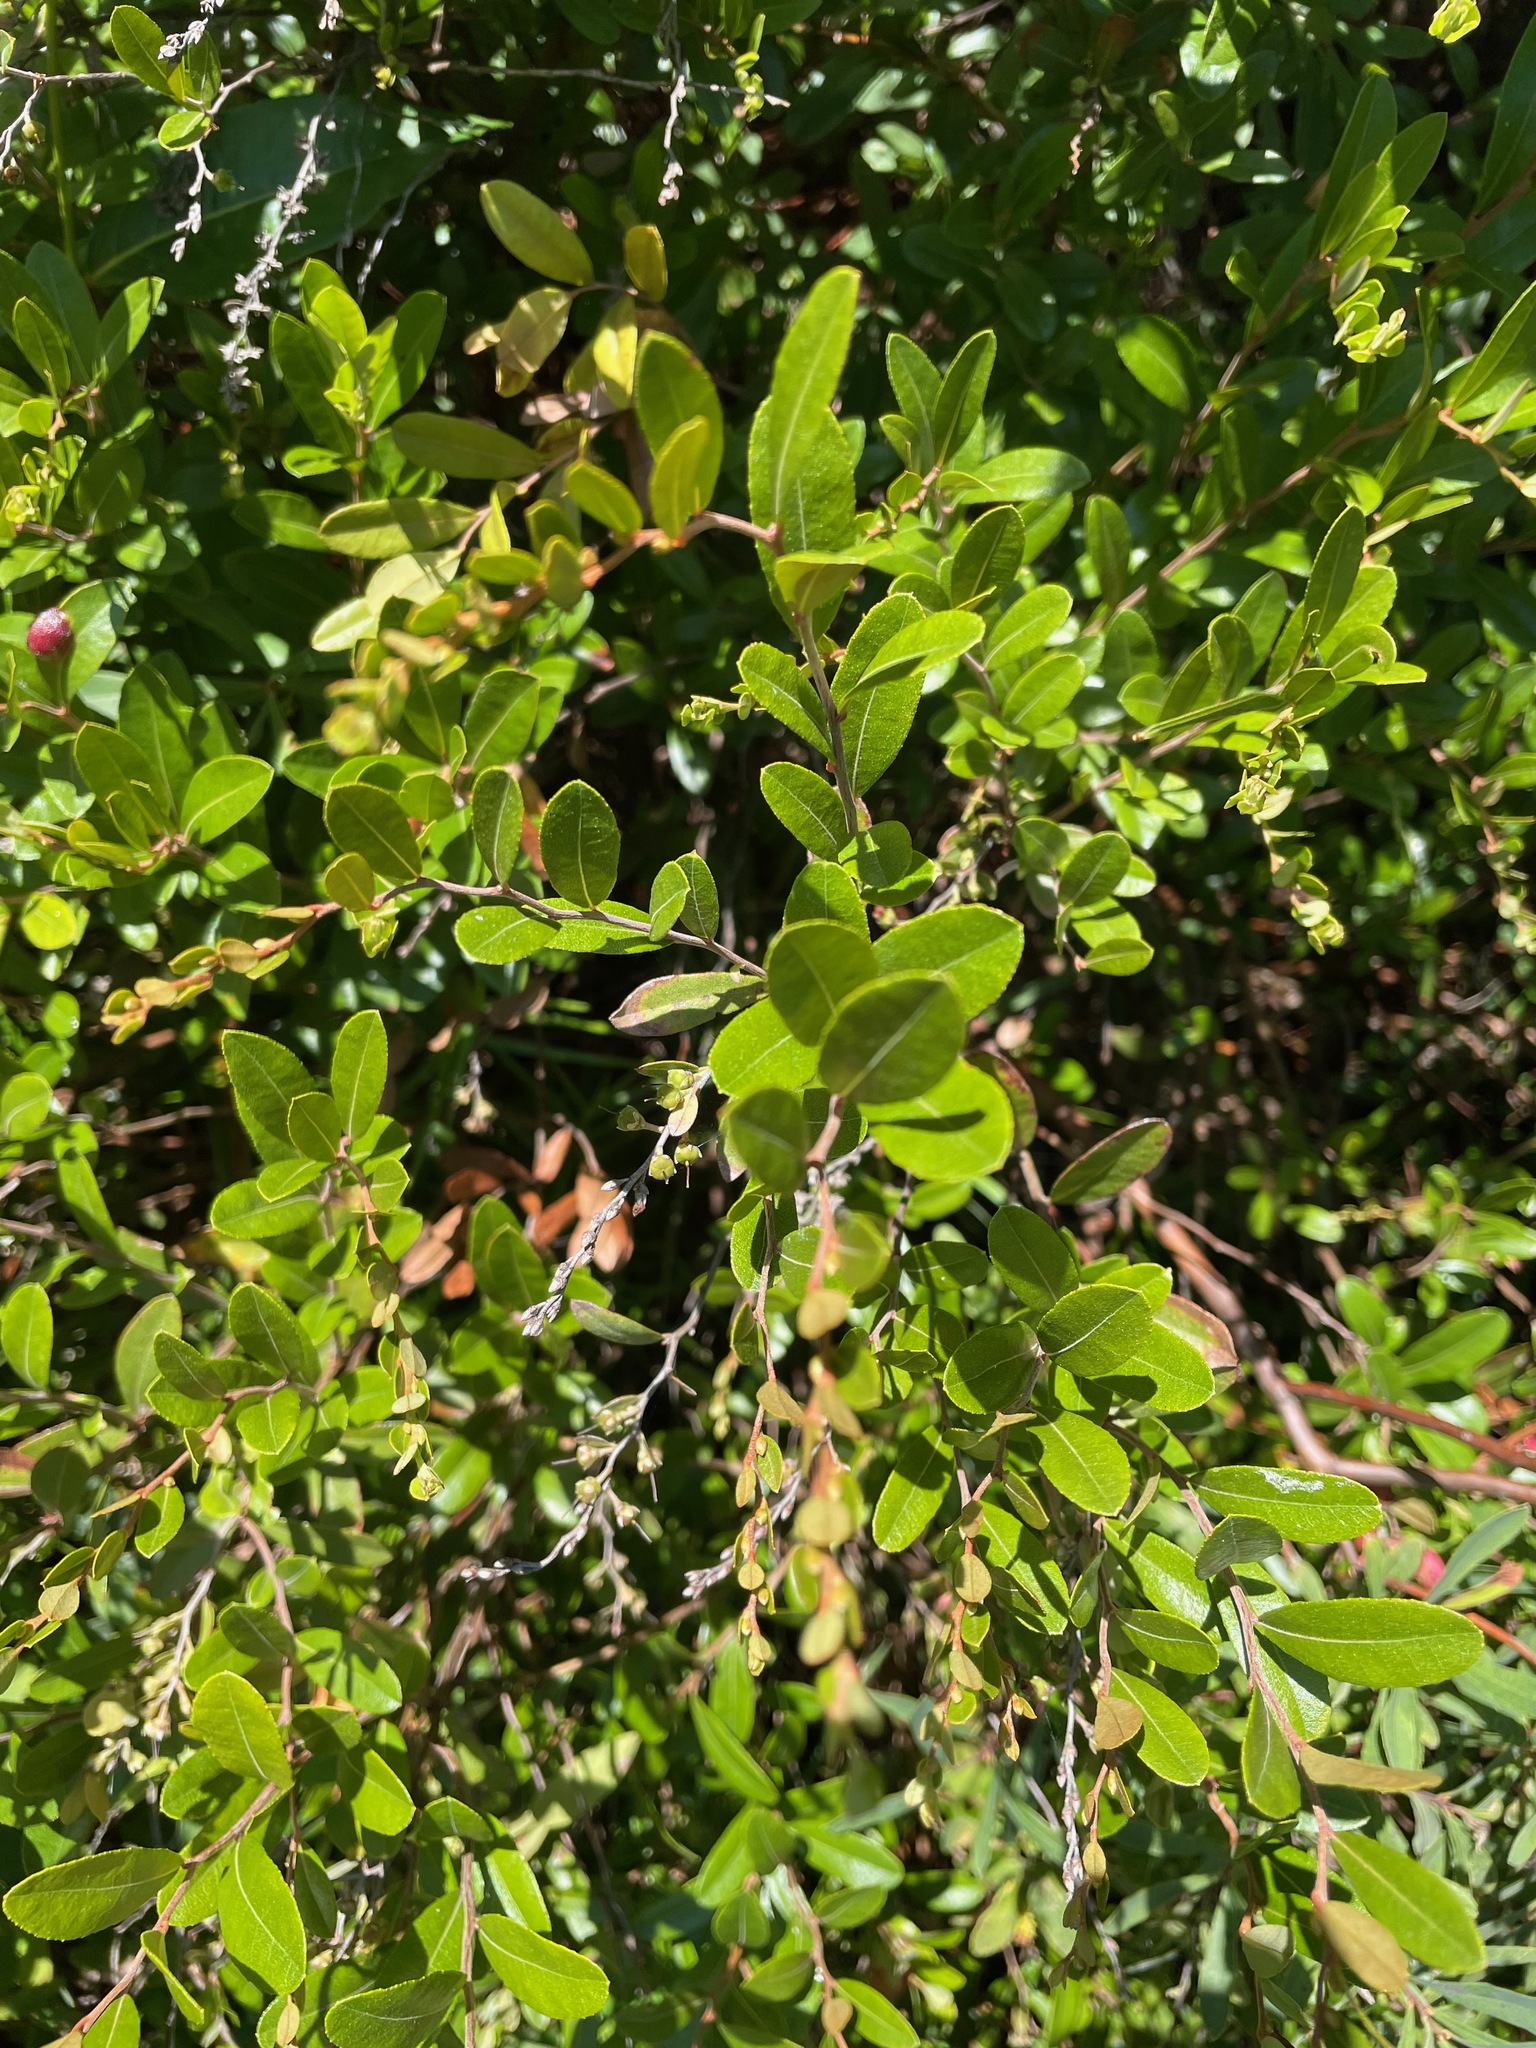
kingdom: Plantae
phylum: Tracheophyta
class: Magnoliopsida
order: Ericales
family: Ericaceae
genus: Chamaedaphne
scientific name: Chamaedaphne calyculata
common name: Leatherleaf
